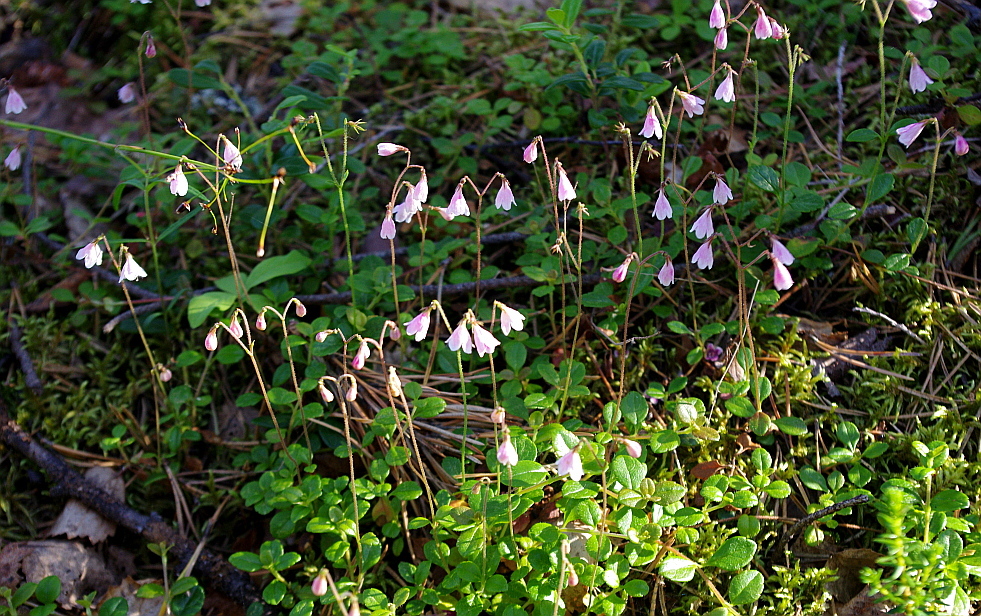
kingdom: Plantae
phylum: Tracheophyta
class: Magnoliopsida
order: Dipsacales
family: Caprifoliaceae
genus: Linnaea
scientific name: Linnaea borealis
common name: Twinflower
